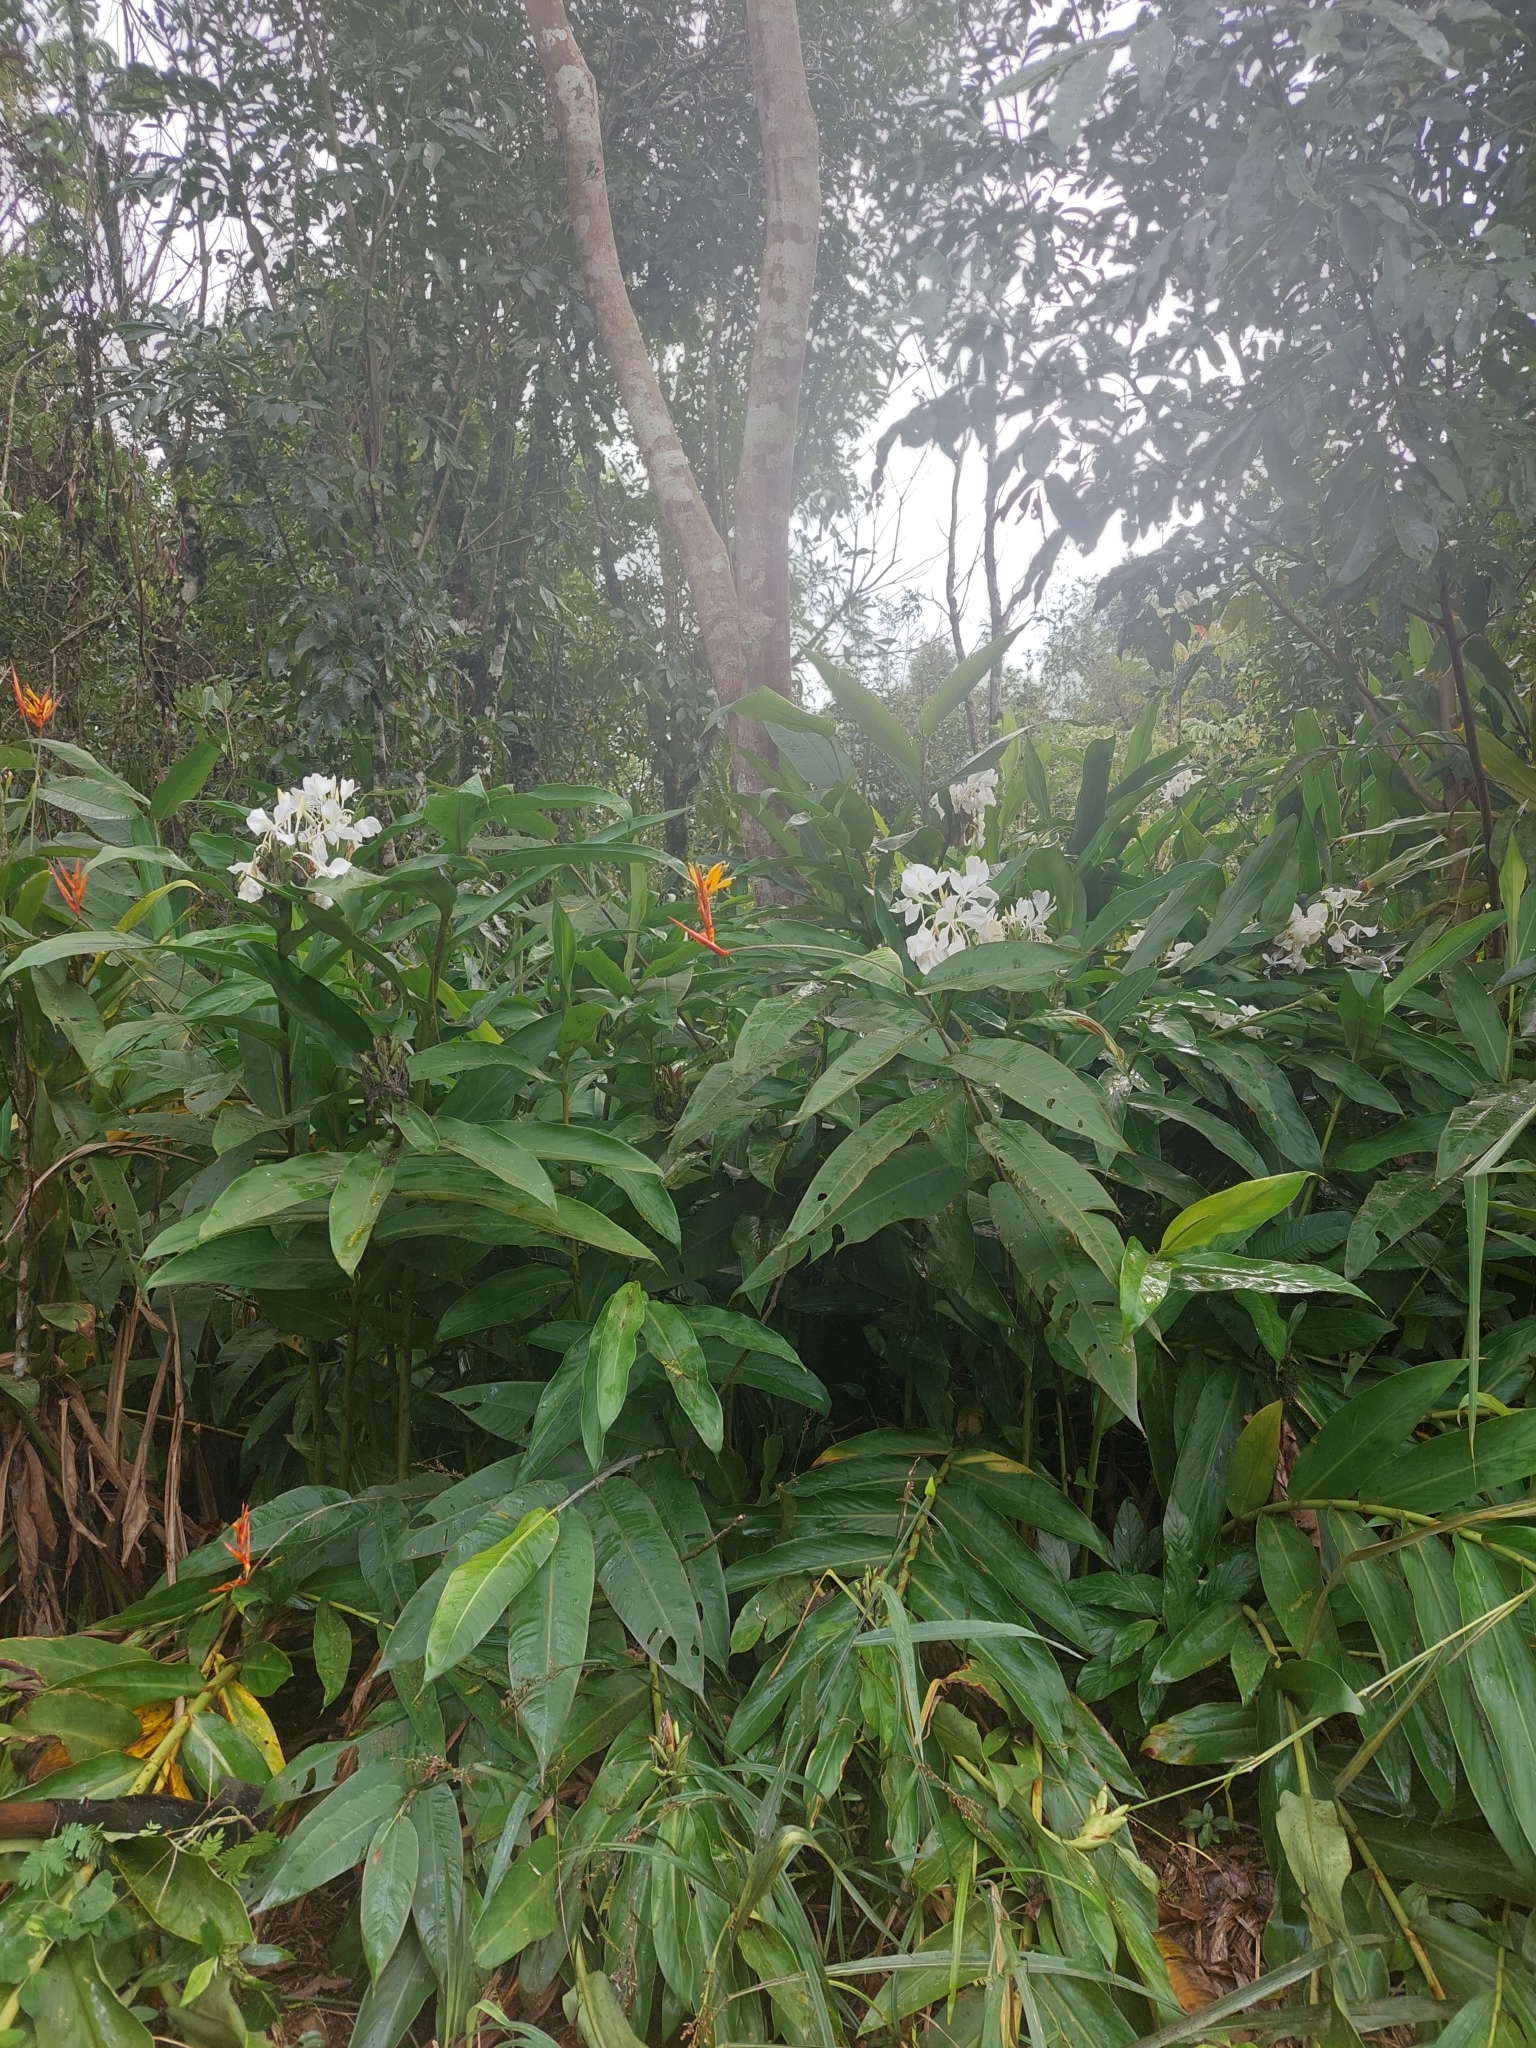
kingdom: Plantae
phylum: Tracheophyta
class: Liliopsida
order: Zingiberales
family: Zingiberaceae
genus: Hedychium
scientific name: Hedychium coronarium
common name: White garland-lily
